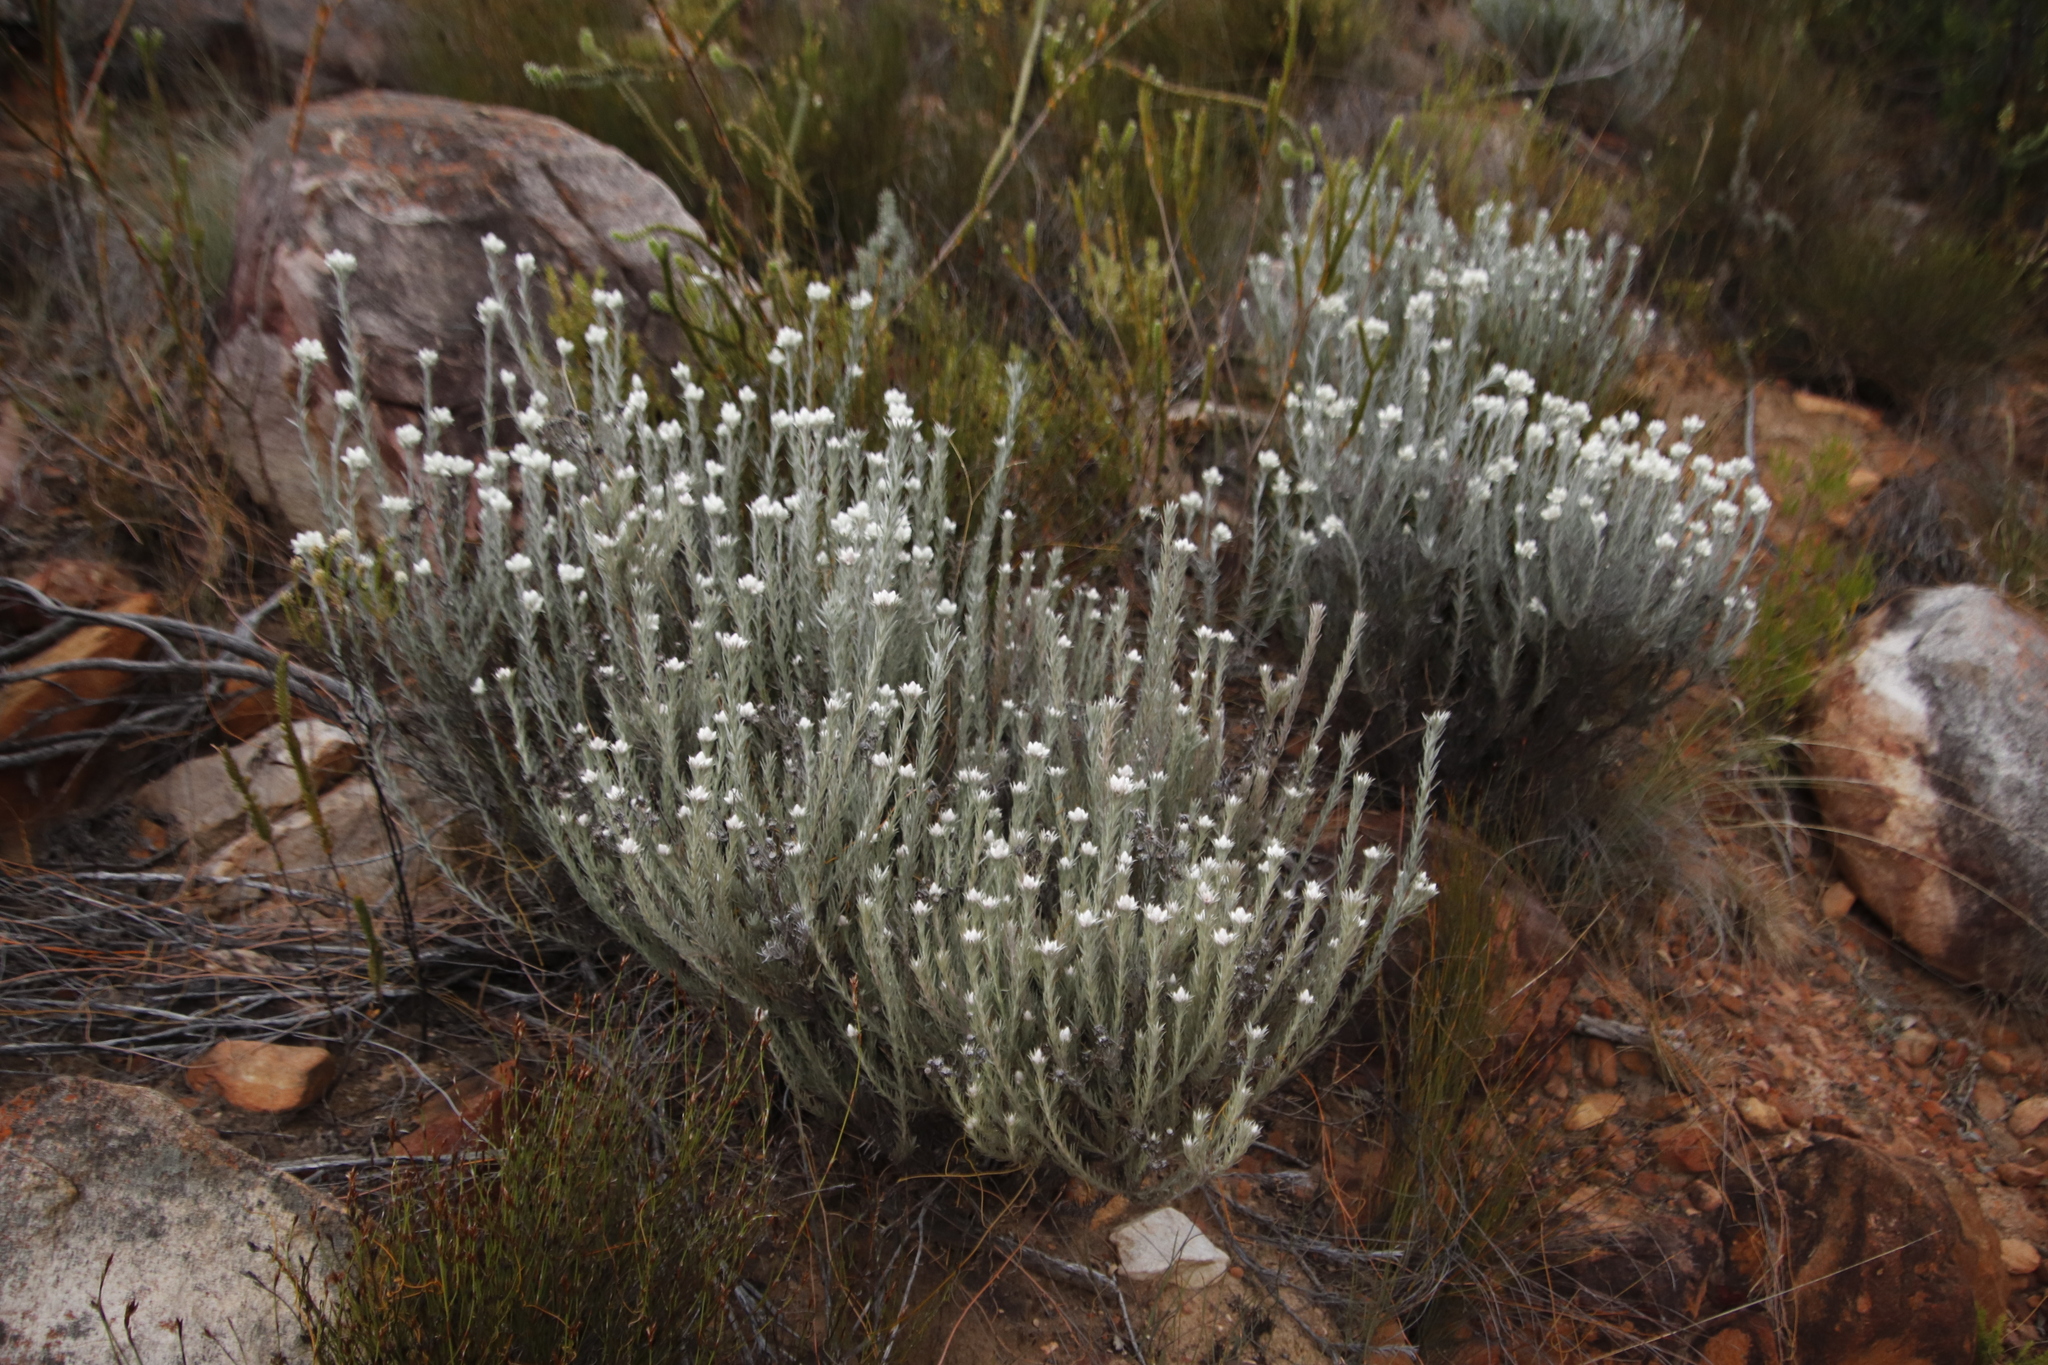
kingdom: Plantae
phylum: Tracheophyta
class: Magnoliopsida
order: Asterales
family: Asteraceae
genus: Achyranthemum
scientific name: Achyranthemum paniculatum
